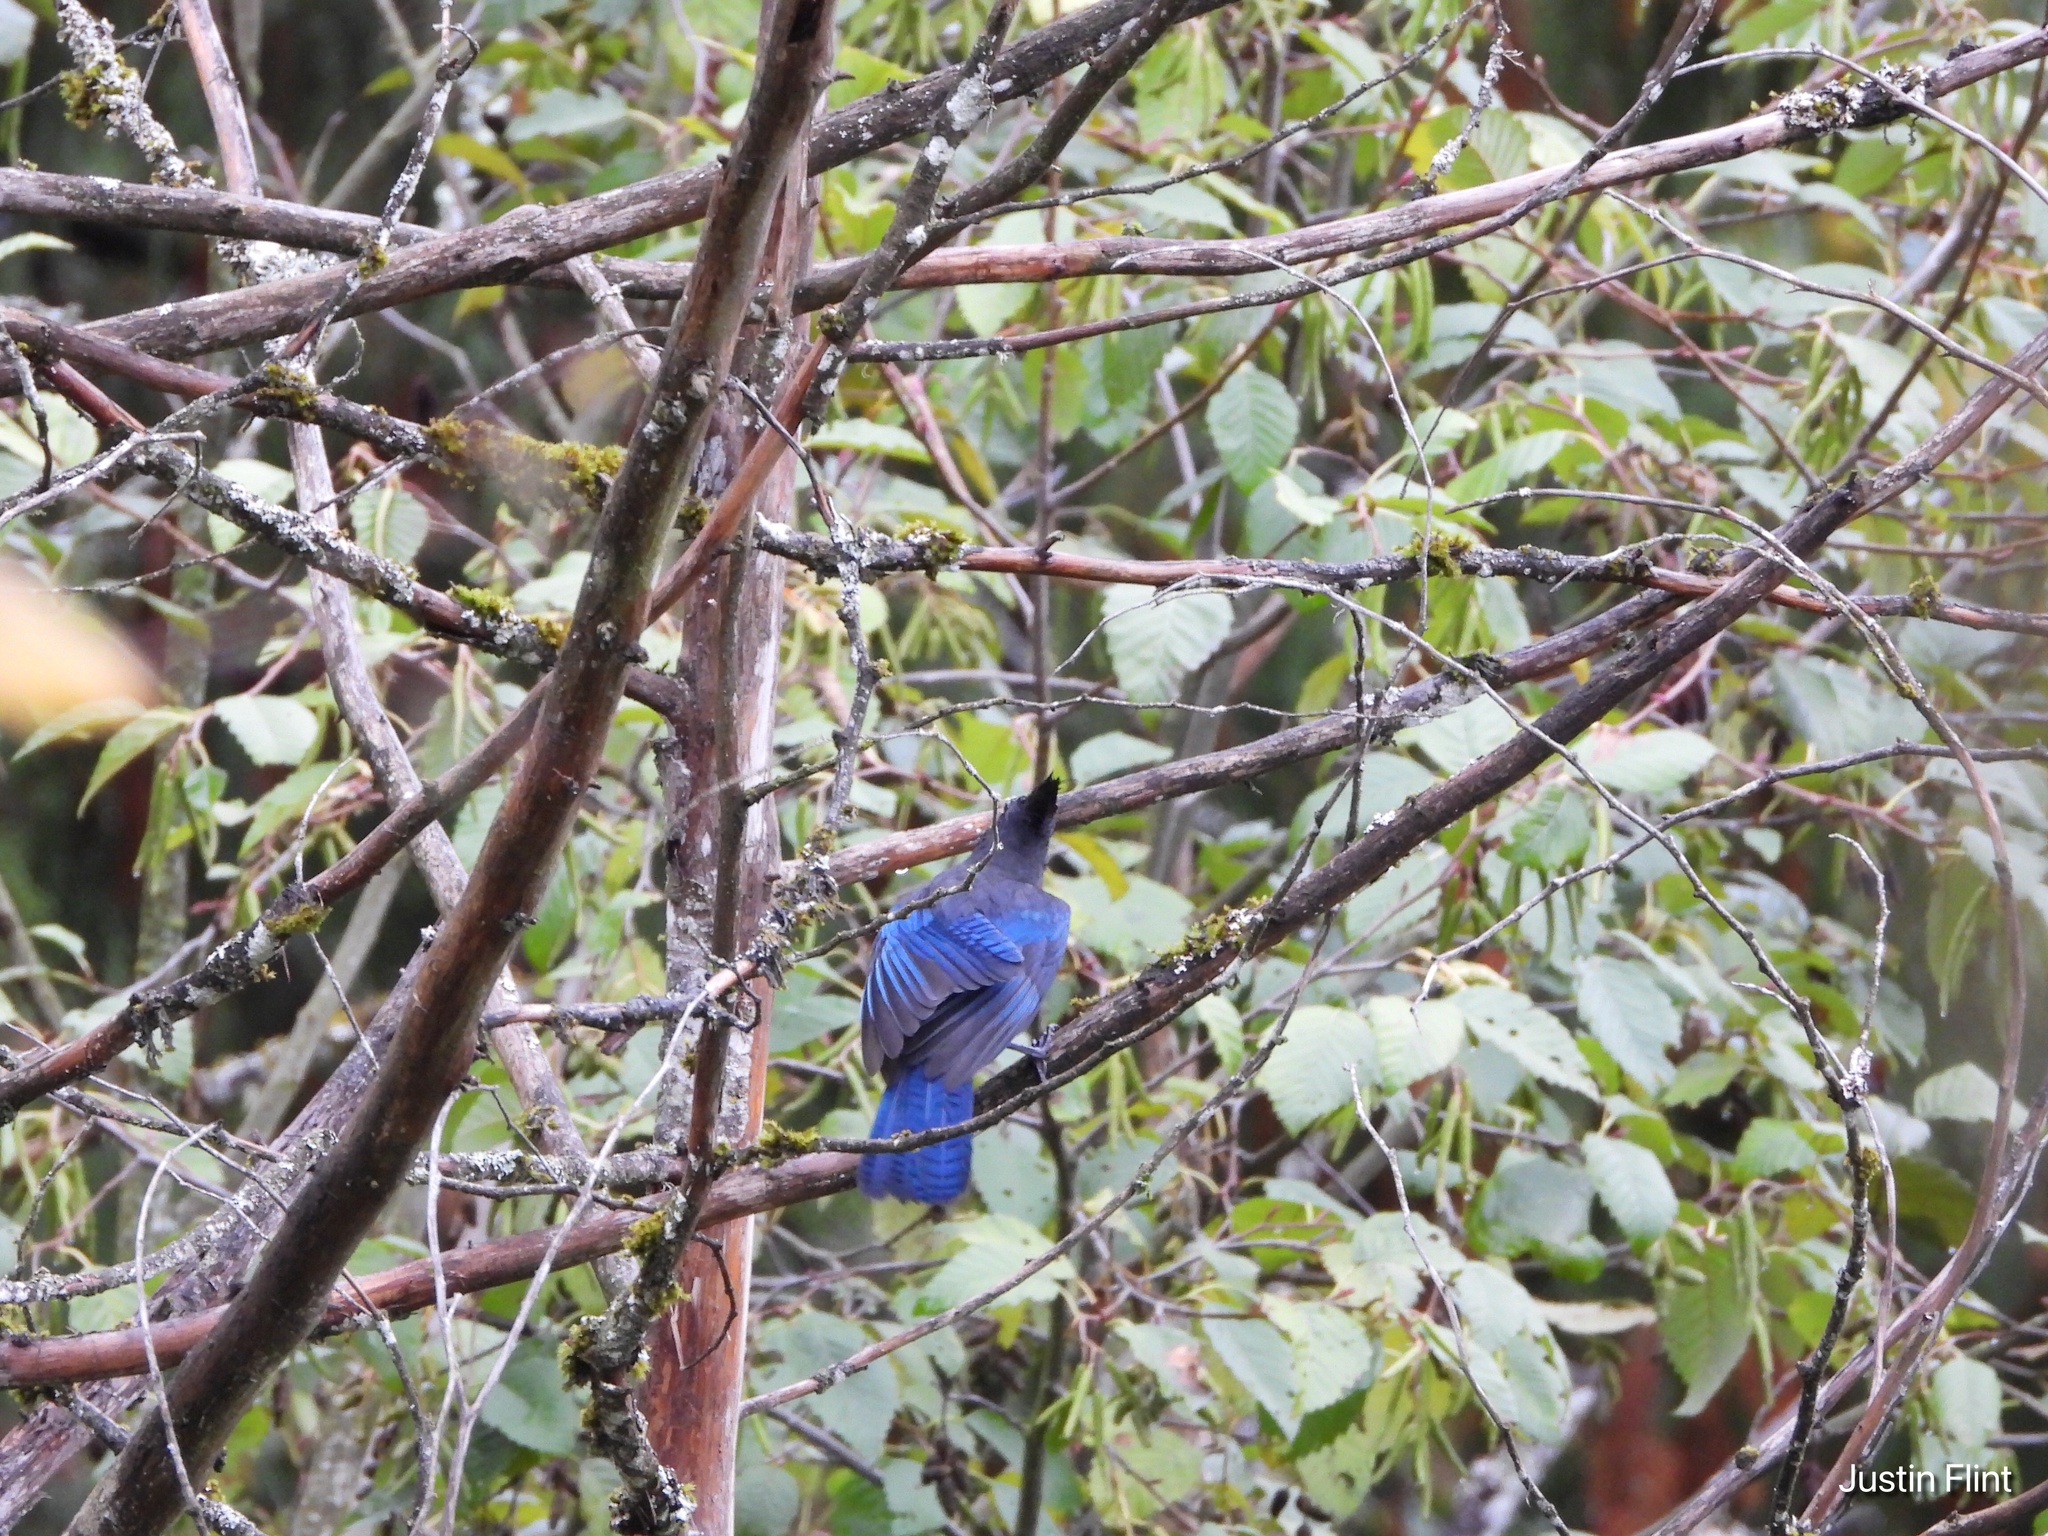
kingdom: Animalia
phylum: Chordata
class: Aves
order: Passeriformes
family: Corvidae
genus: Cyanocitta
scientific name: Cyanocitta stelleri
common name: Steller's jay
